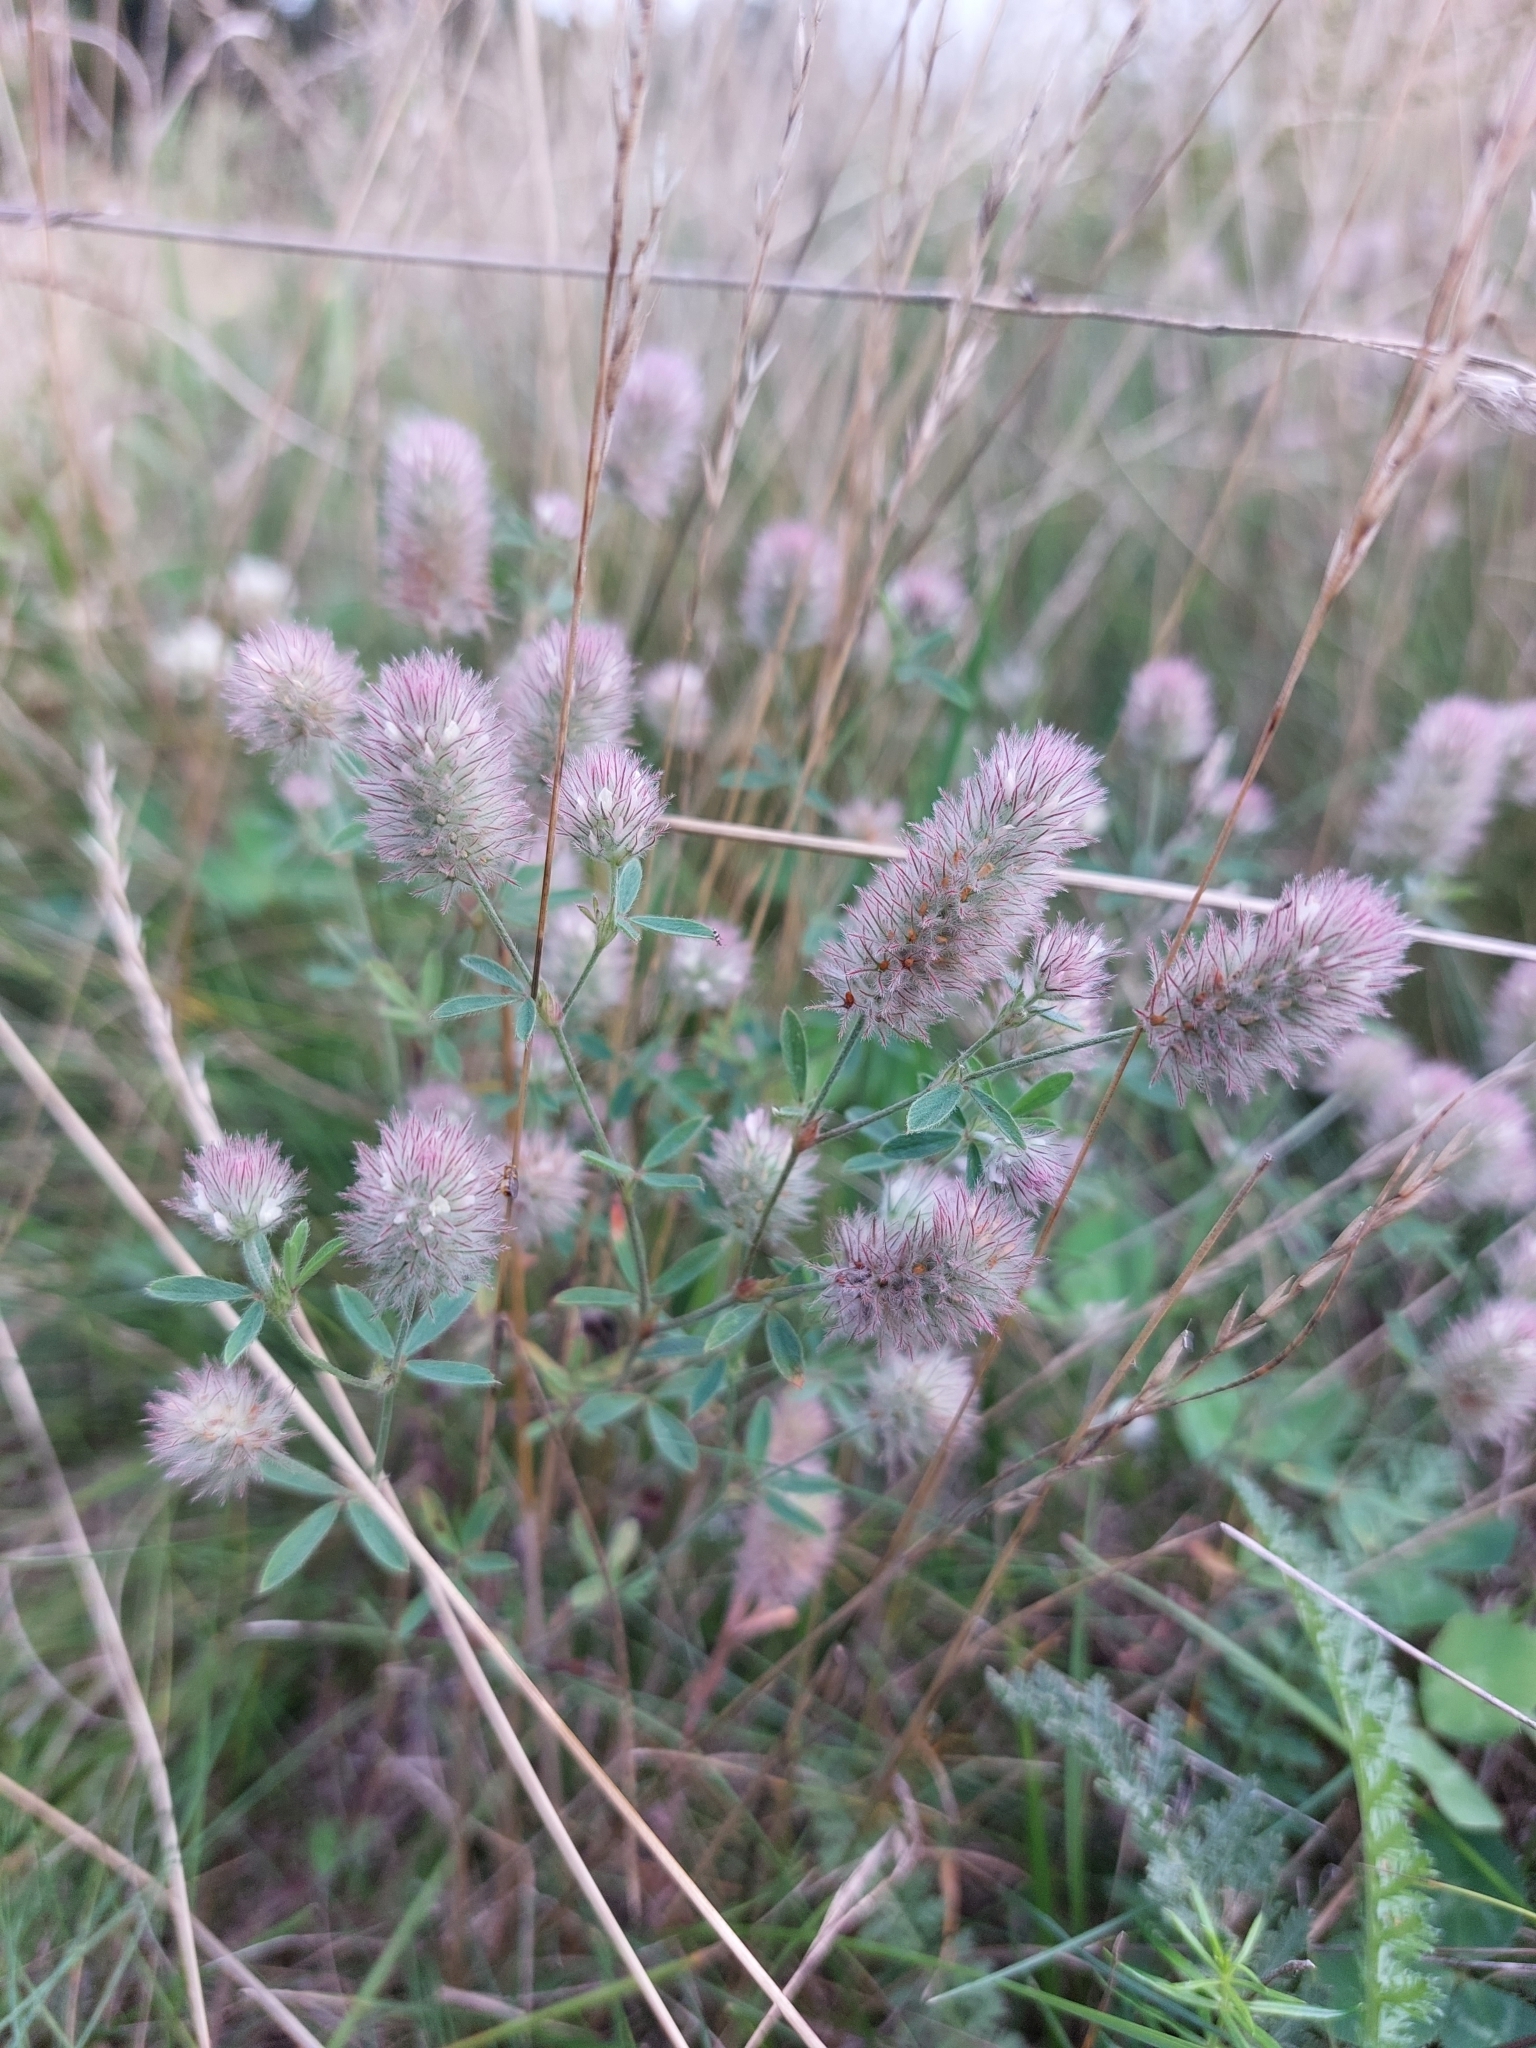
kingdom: Plantae
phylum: Tracheophyta
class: Magnoliopsida
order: Fabales
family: Fabaceae
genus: Trifolium
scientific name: Trifolium arvense
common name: Hare's-foot clover
